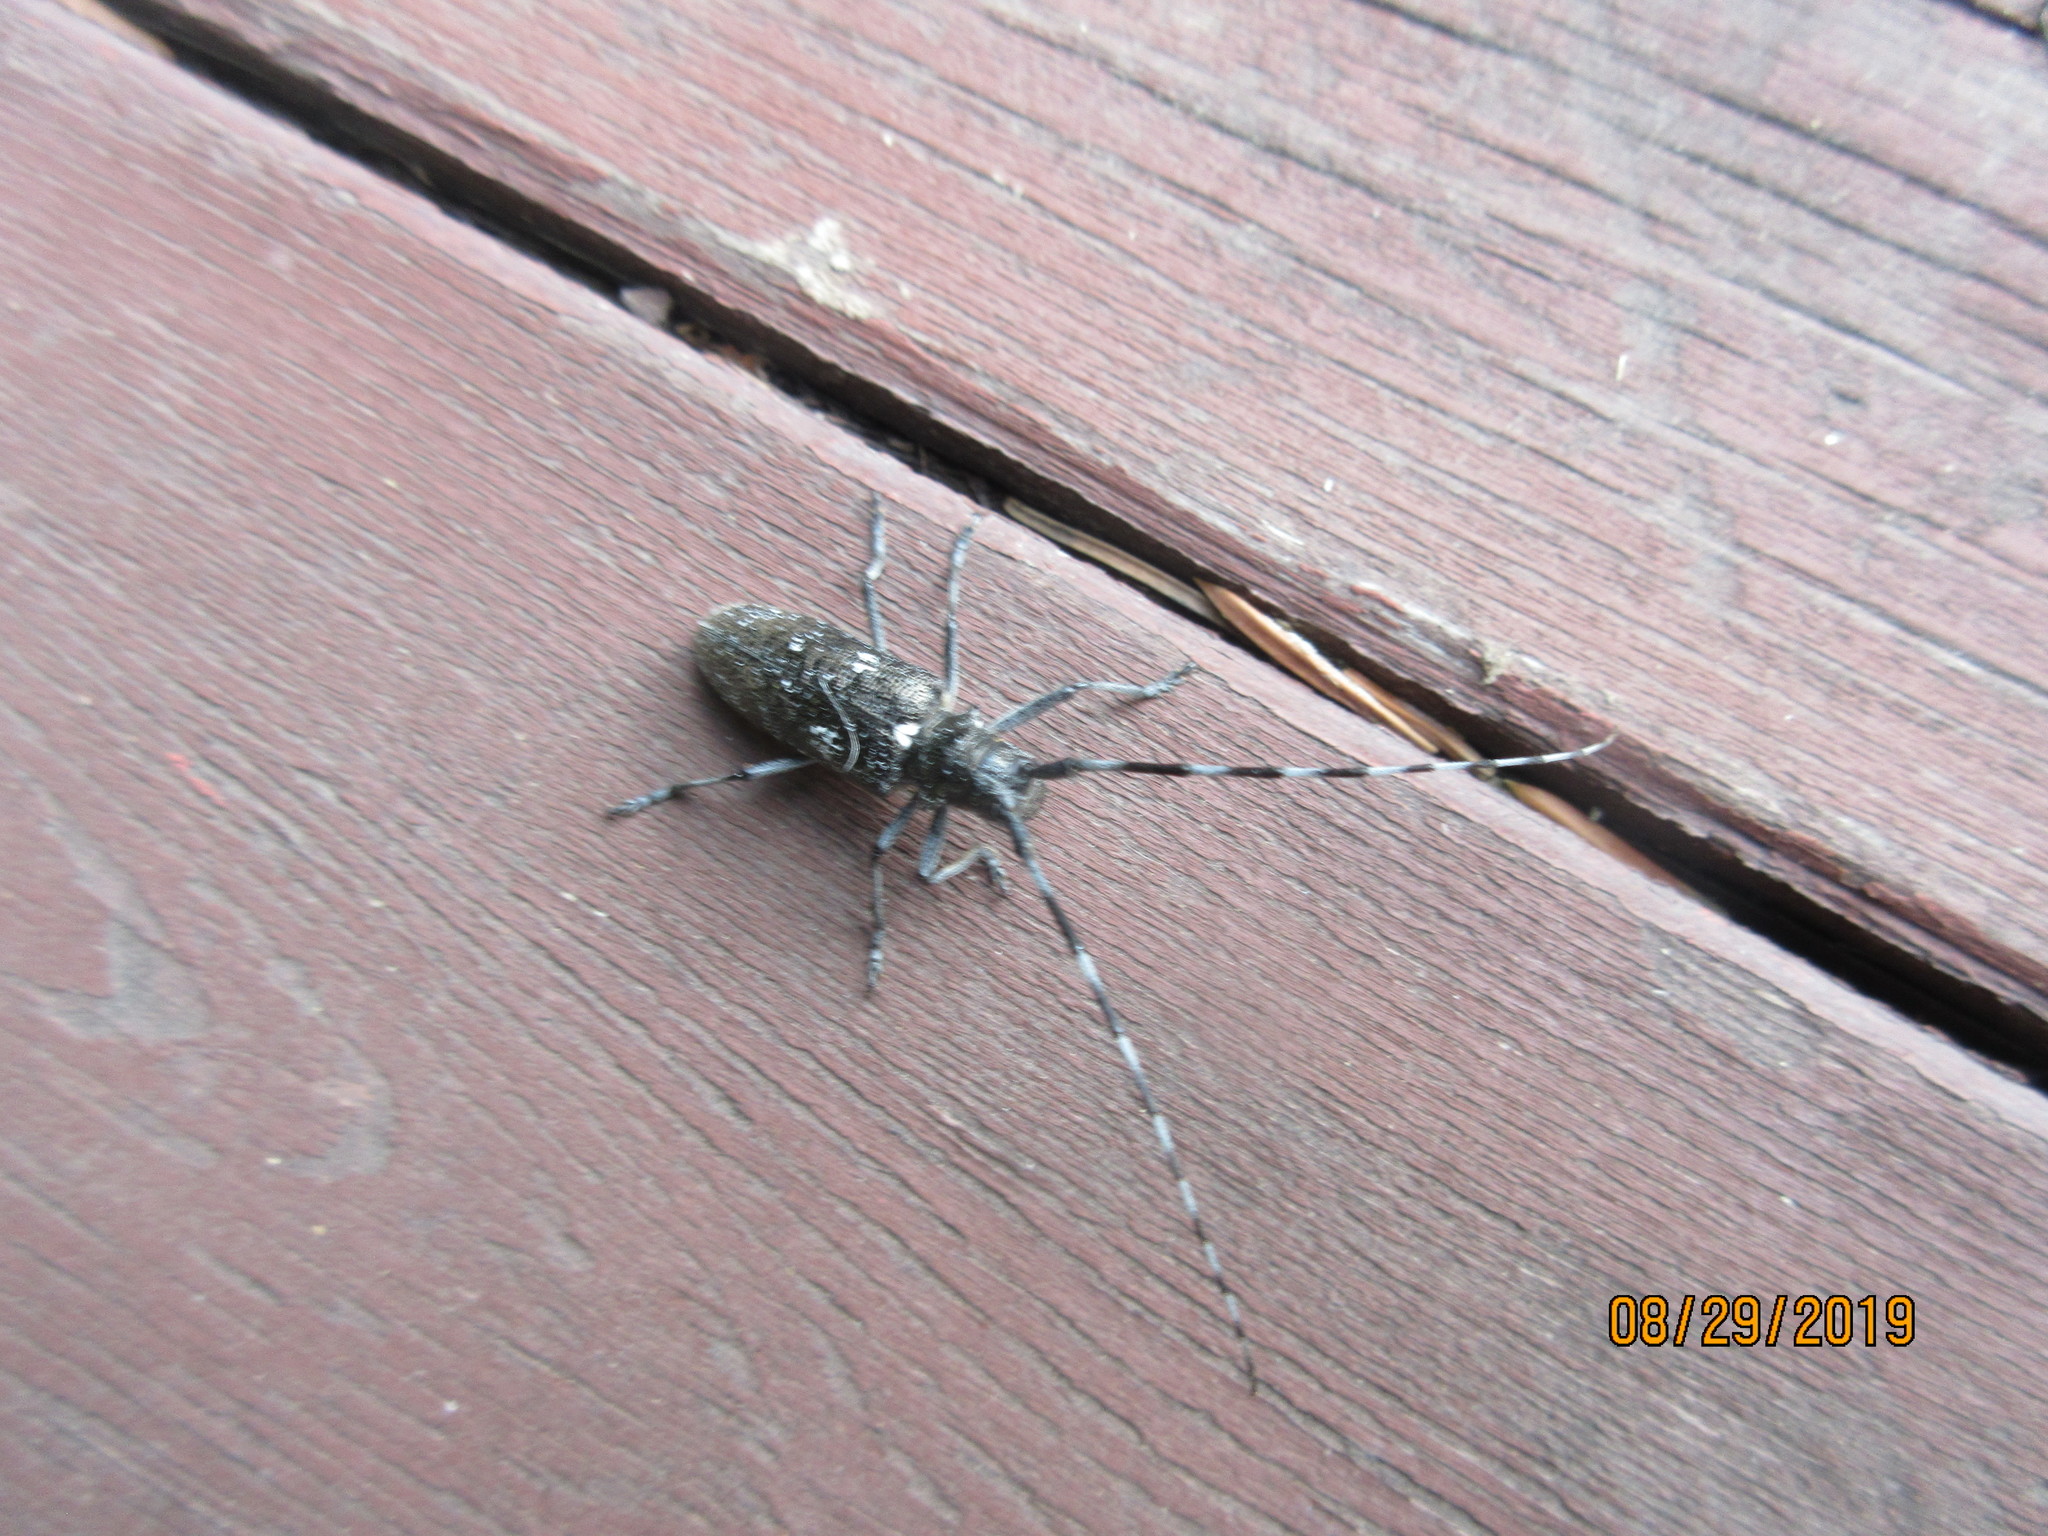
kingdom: Animalia
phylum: Arthropoda
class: Insecta
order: Coleoptera
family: Cerambycidae
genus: Monochamus
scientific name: Monochamus scutellatus
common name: White-spotted sawyer beetle
